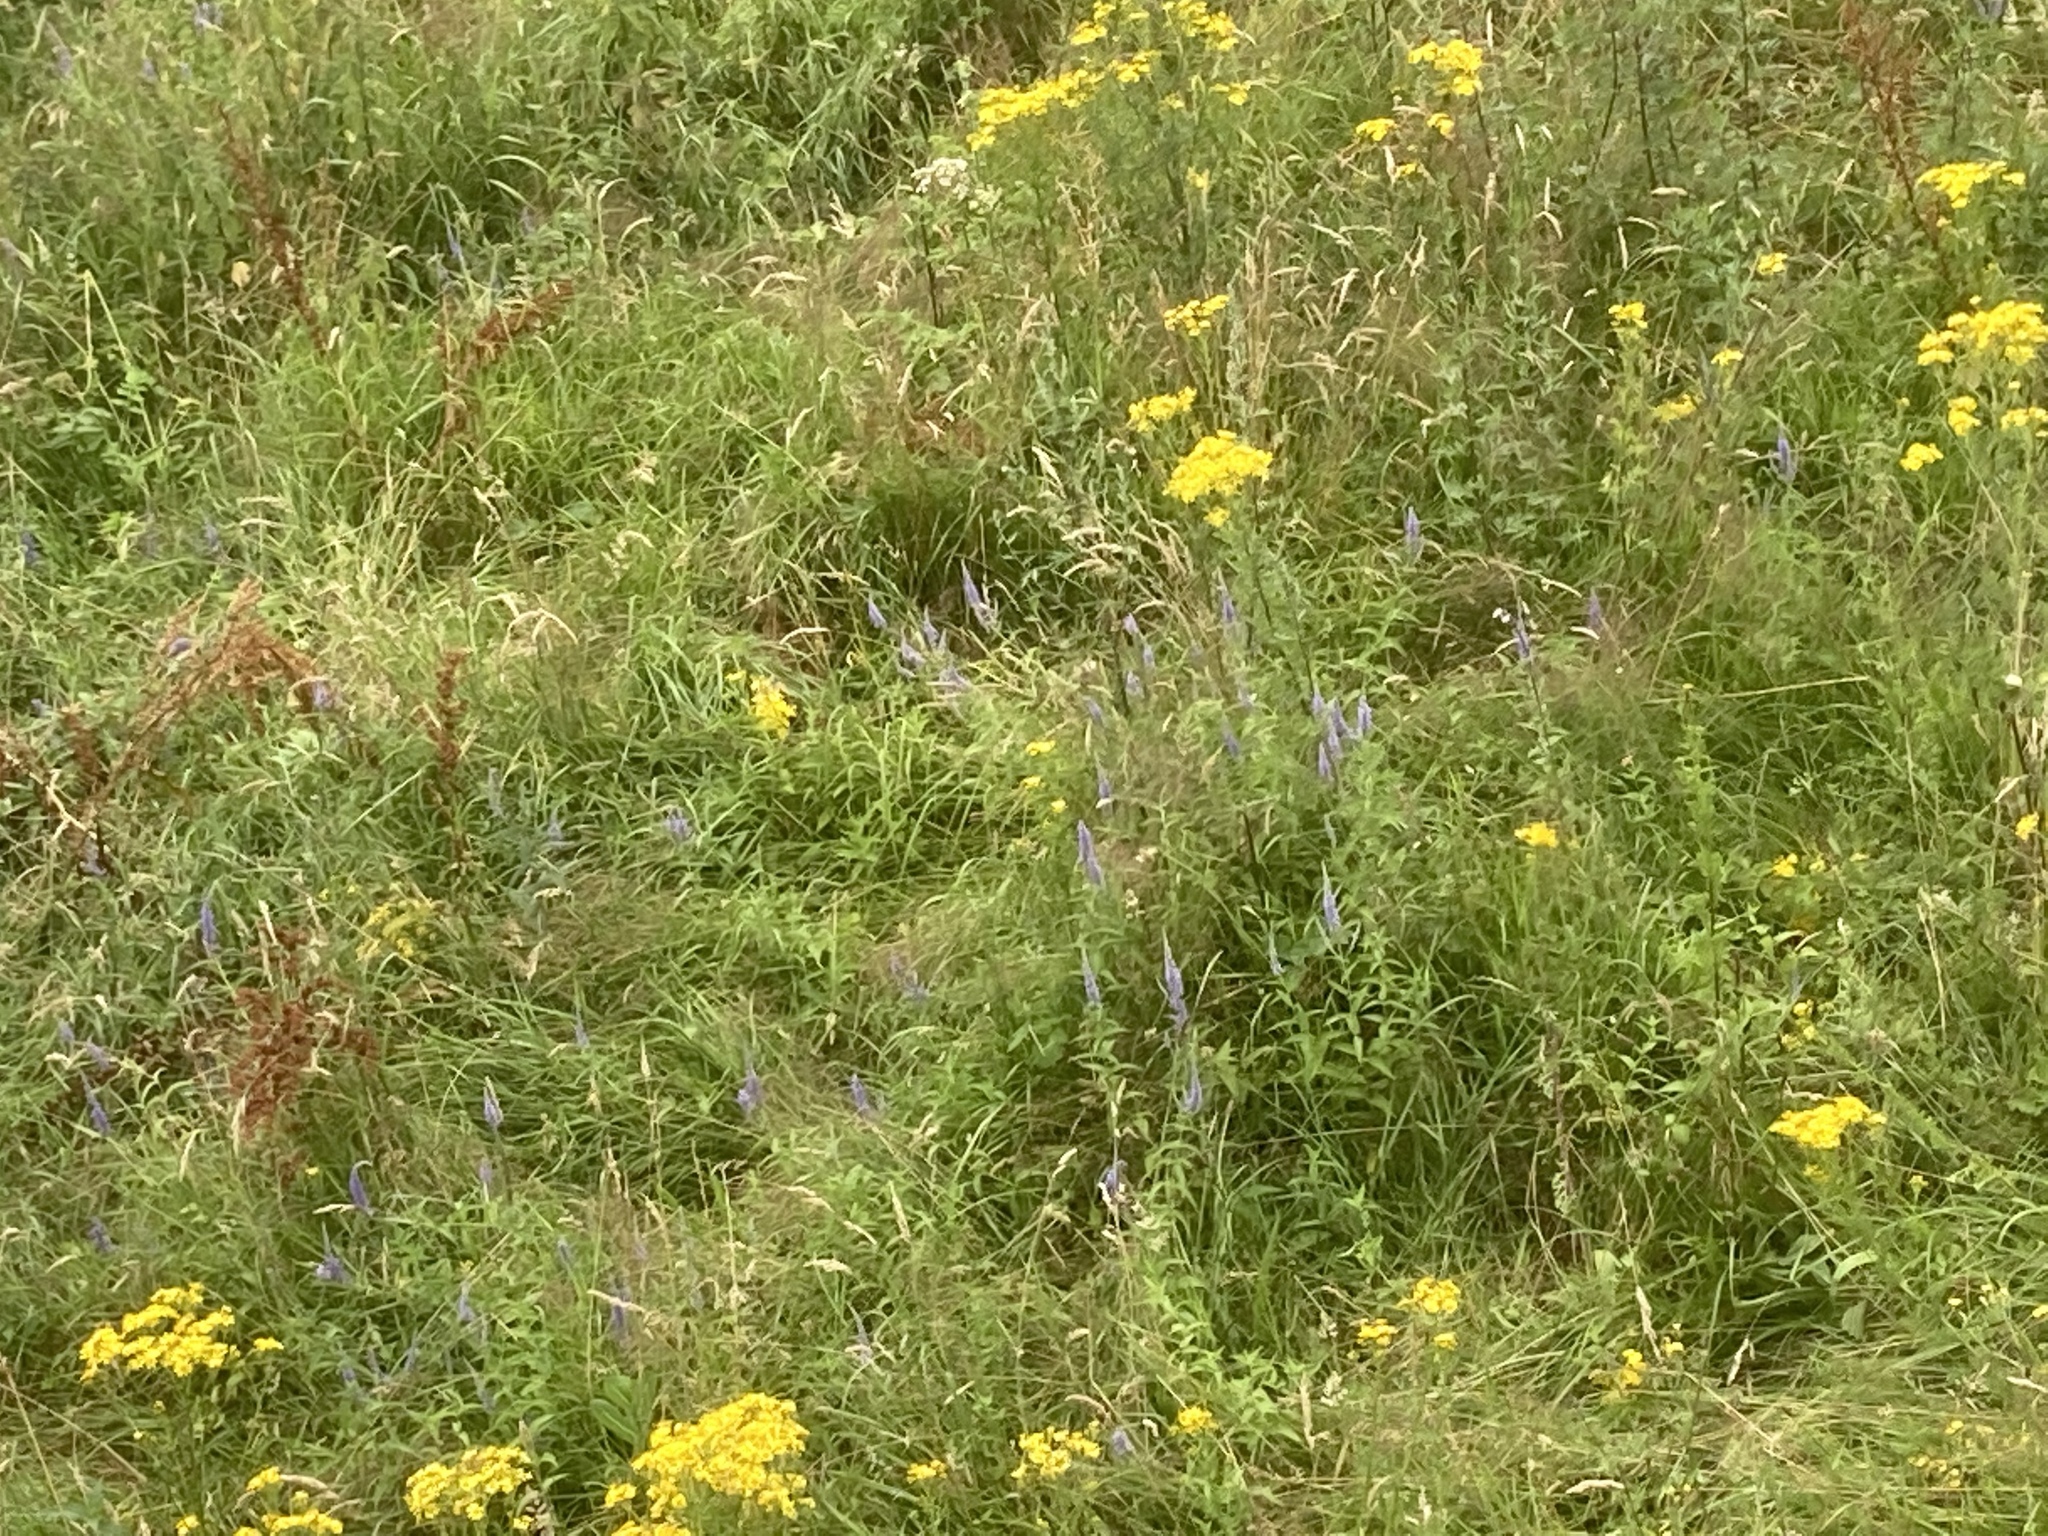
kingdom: Plantae
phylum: Tracheophyta
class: Magnoliopsida
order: Lamiales
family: Plantaginaceae
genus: Veronica
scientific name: Veronica longifolia
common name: Garden speedwell
